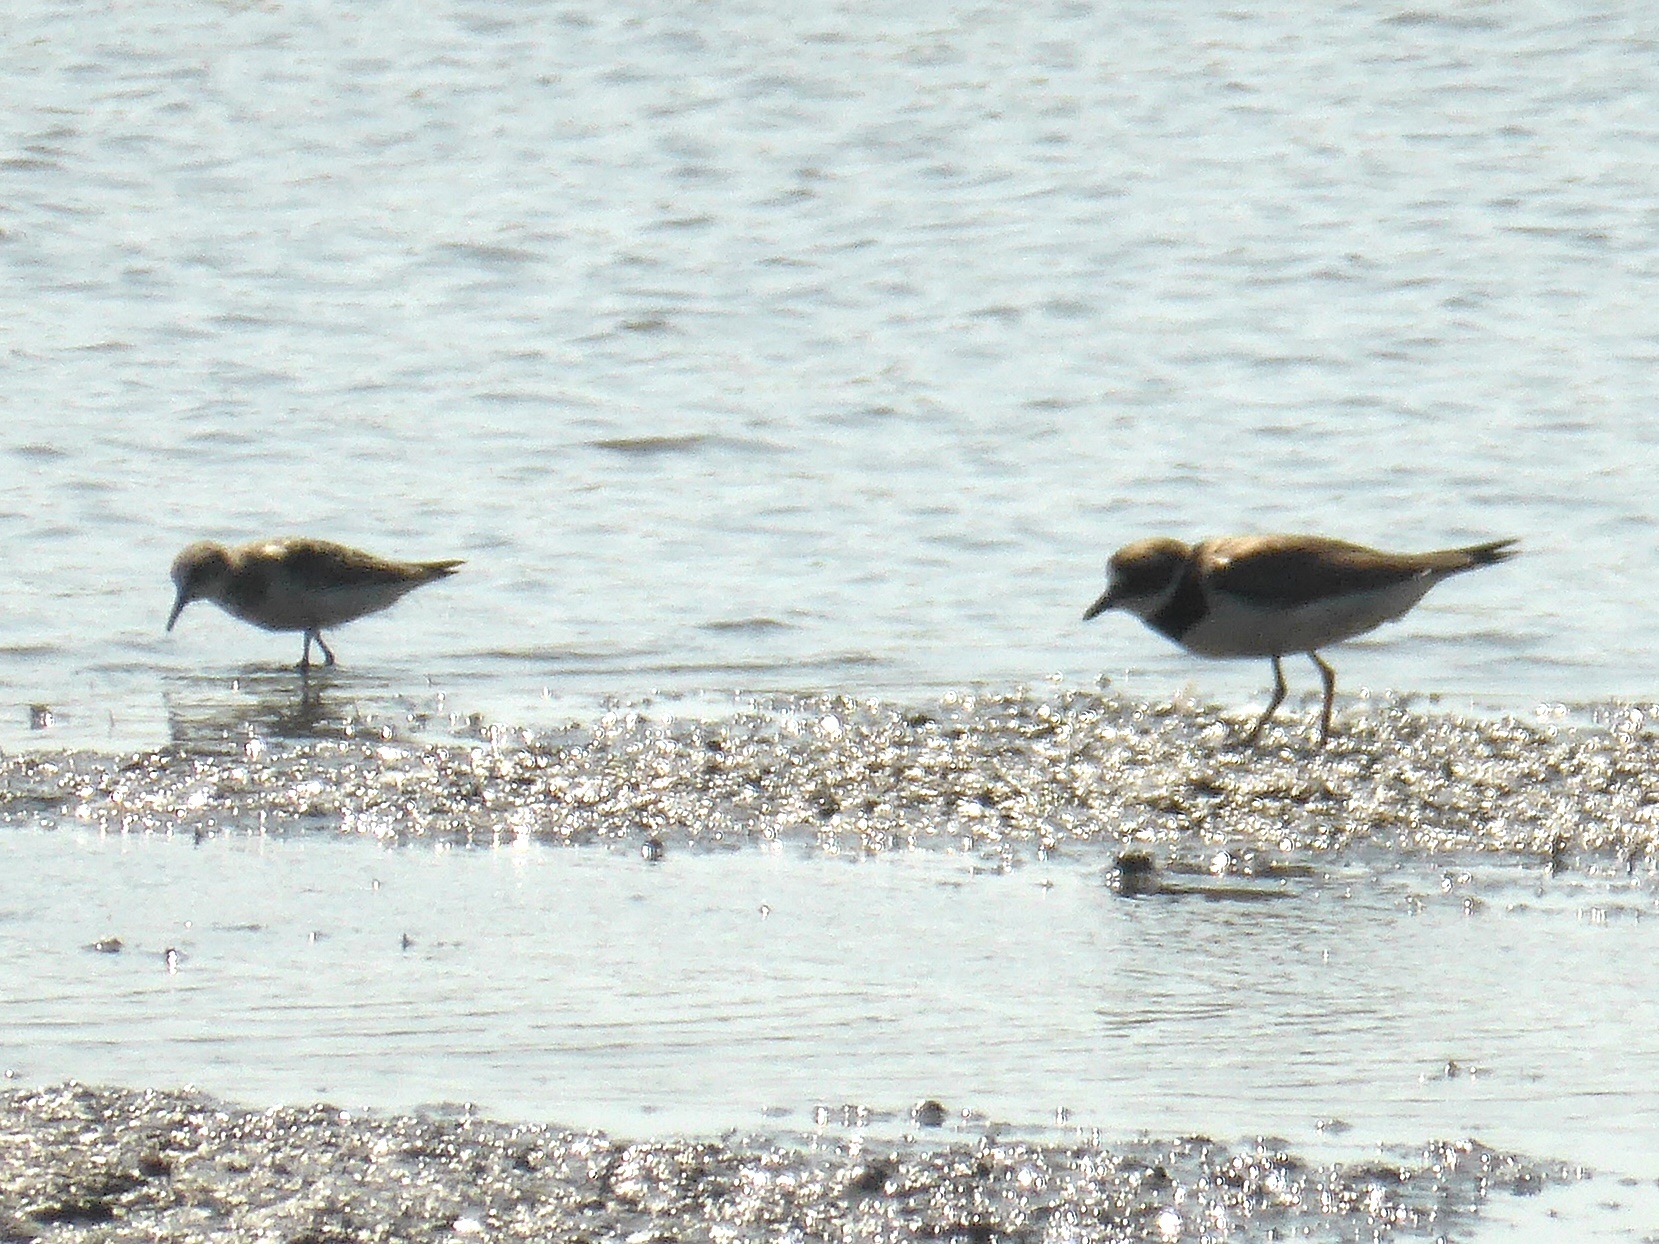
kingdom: Animalia
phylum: Chordata
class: Aves
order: Charadriiformes
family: Charadriidae
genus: Charadrius
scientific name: Charadrius hiaticula
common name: Common ringed plover
